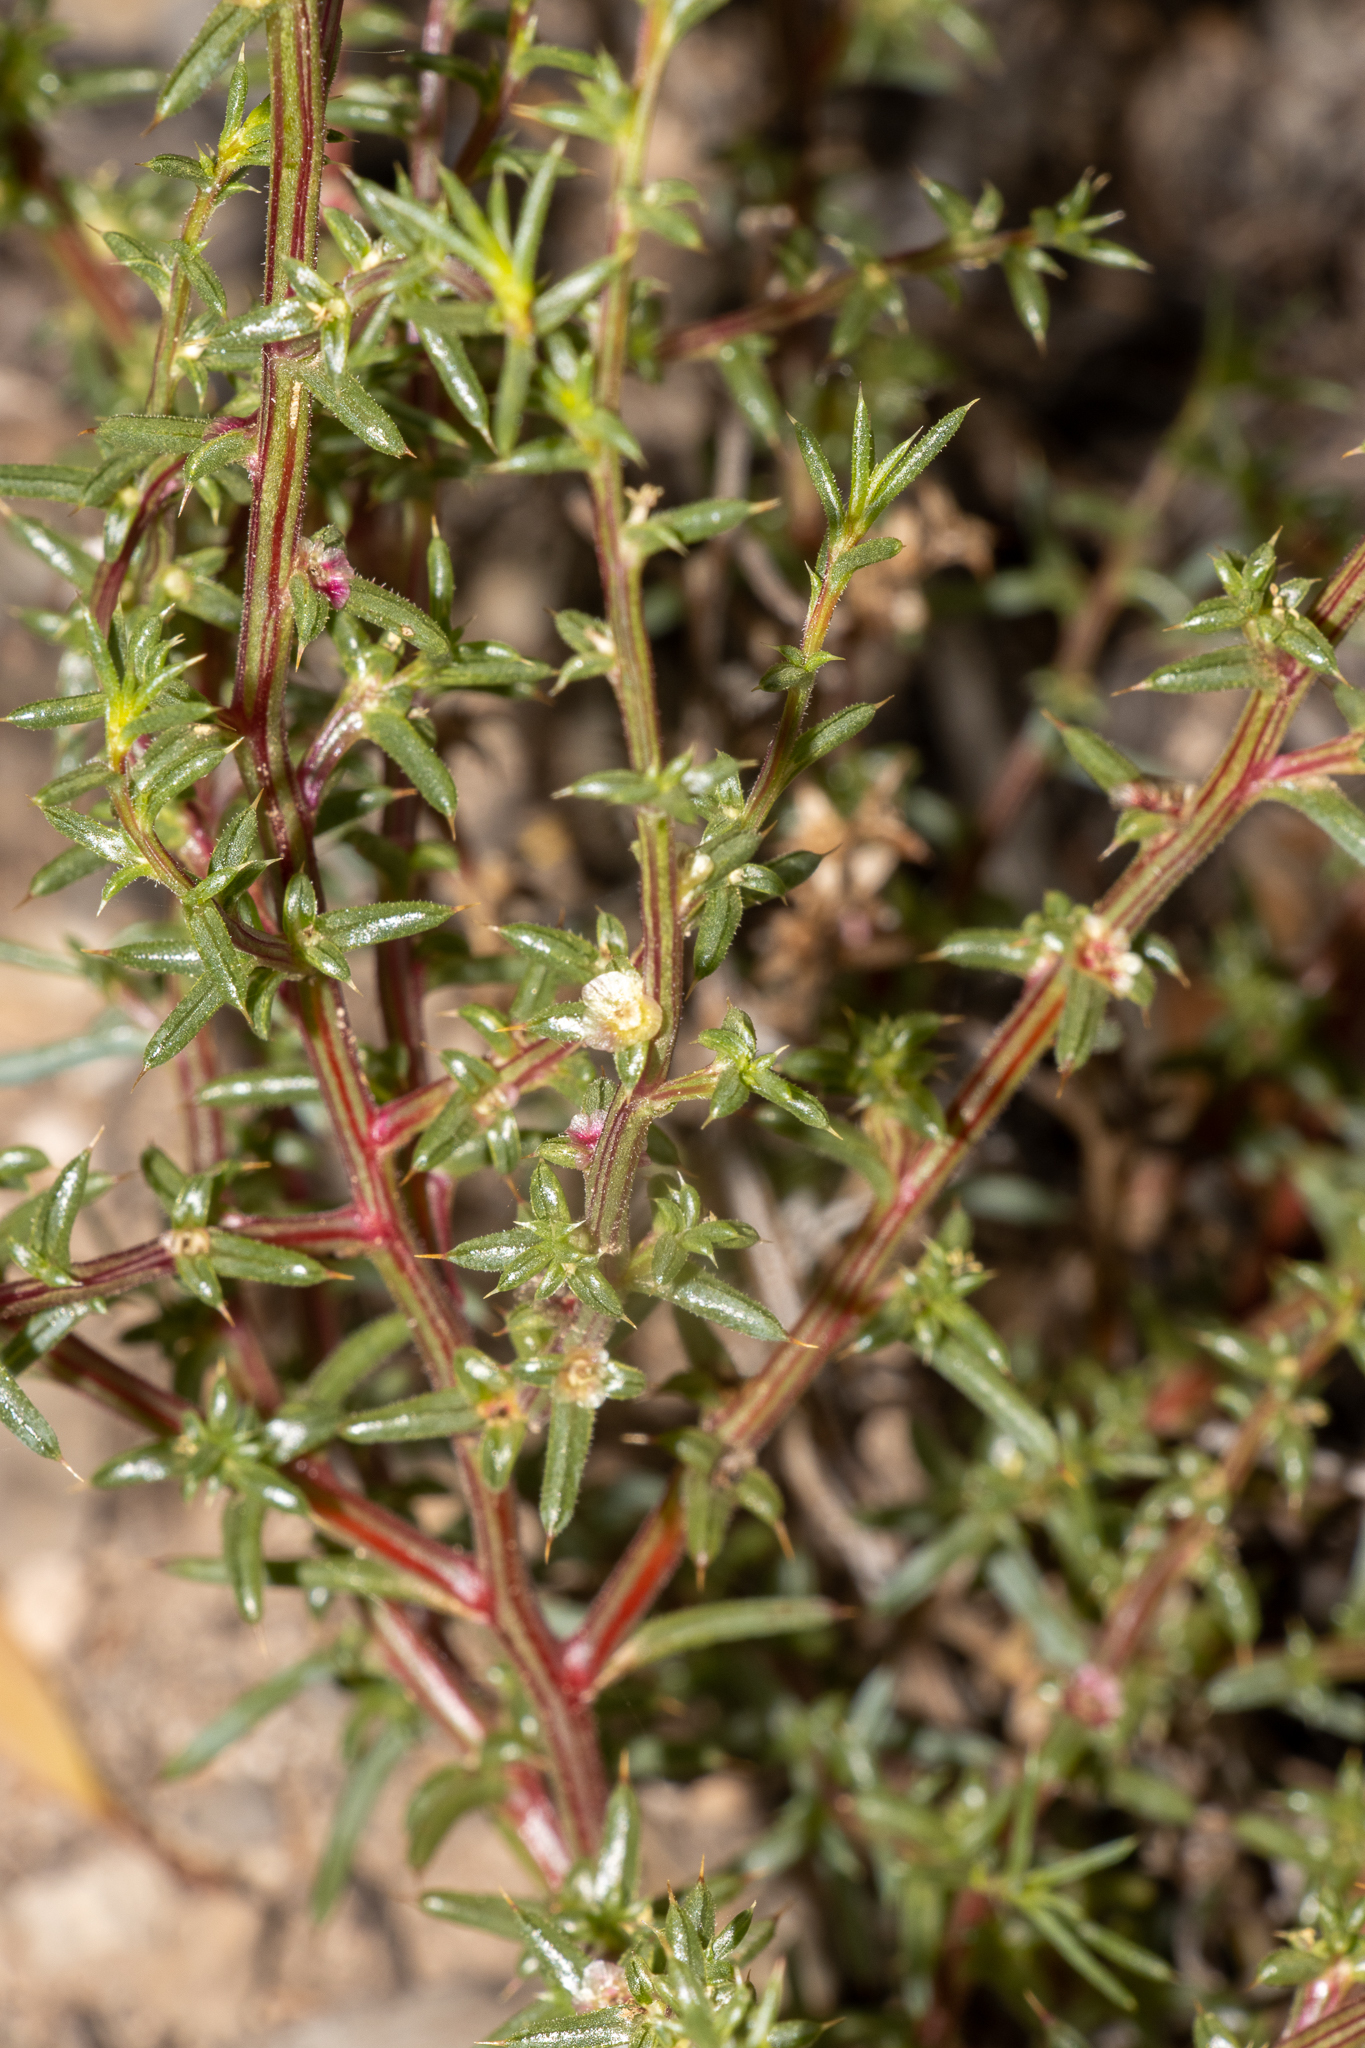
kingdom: Plantae
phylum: Tracheophyta
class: Magnoliopsida
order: Caryophyllales
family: Amaranthaceae
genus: Salsola
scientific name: Salsola australis
